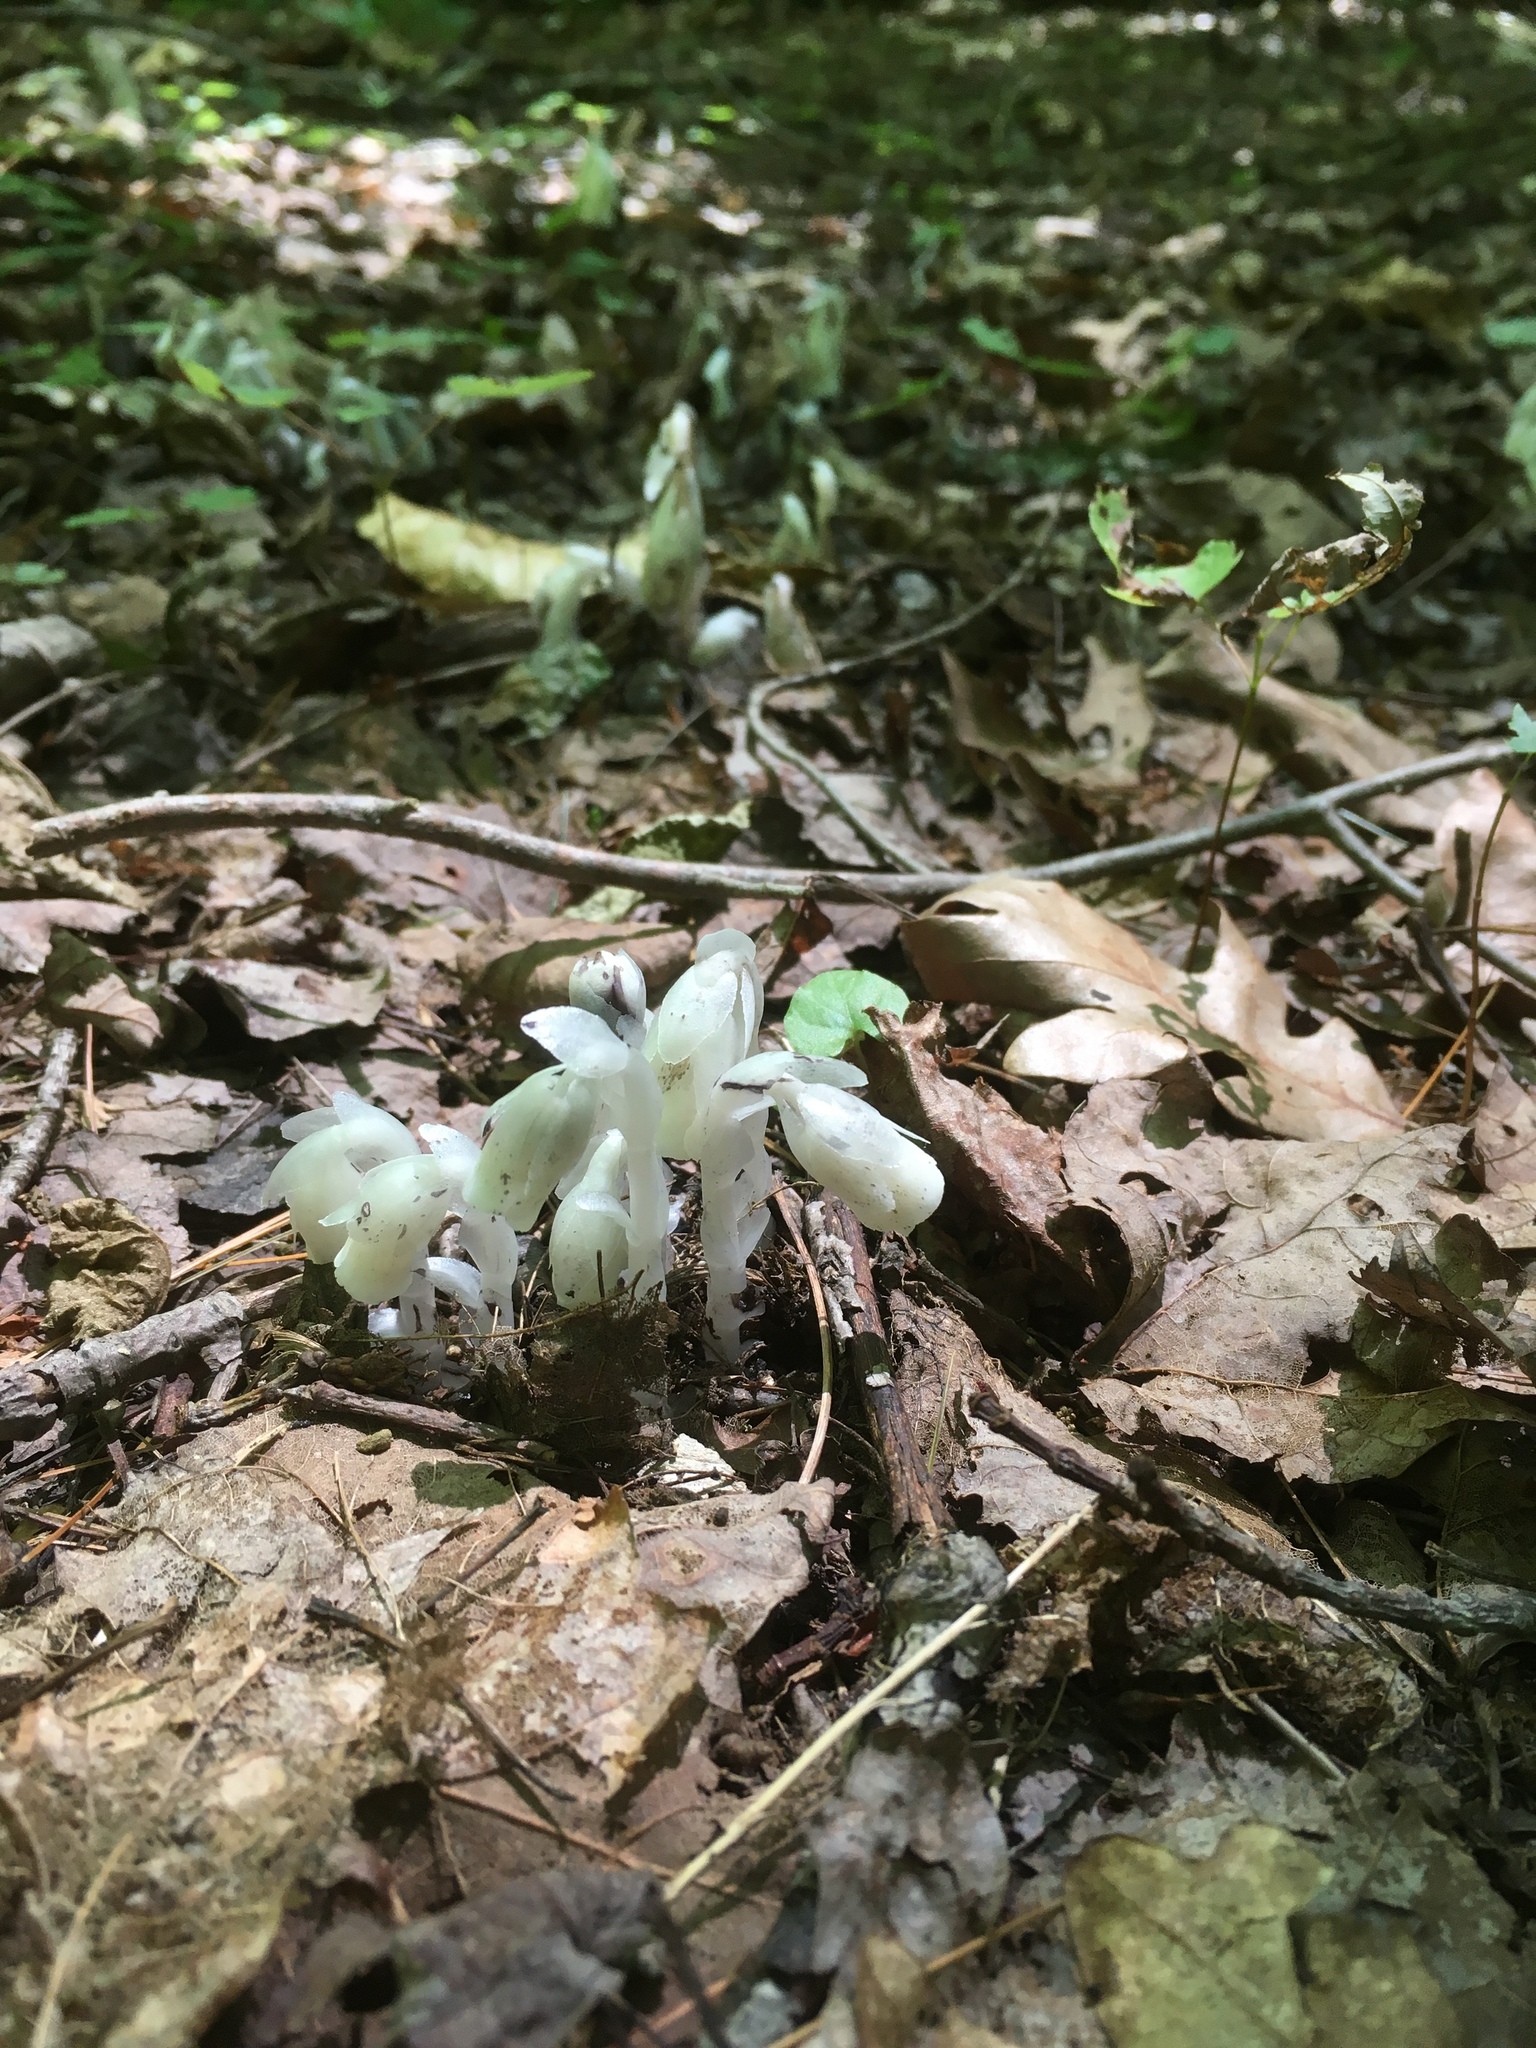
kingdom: Plantae
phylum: Tracheophyta
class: Magnoliopsida
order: Ericales
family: Ericaceae
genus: Monotropa
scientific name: Monotropa uniflora
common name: Convulsion root
